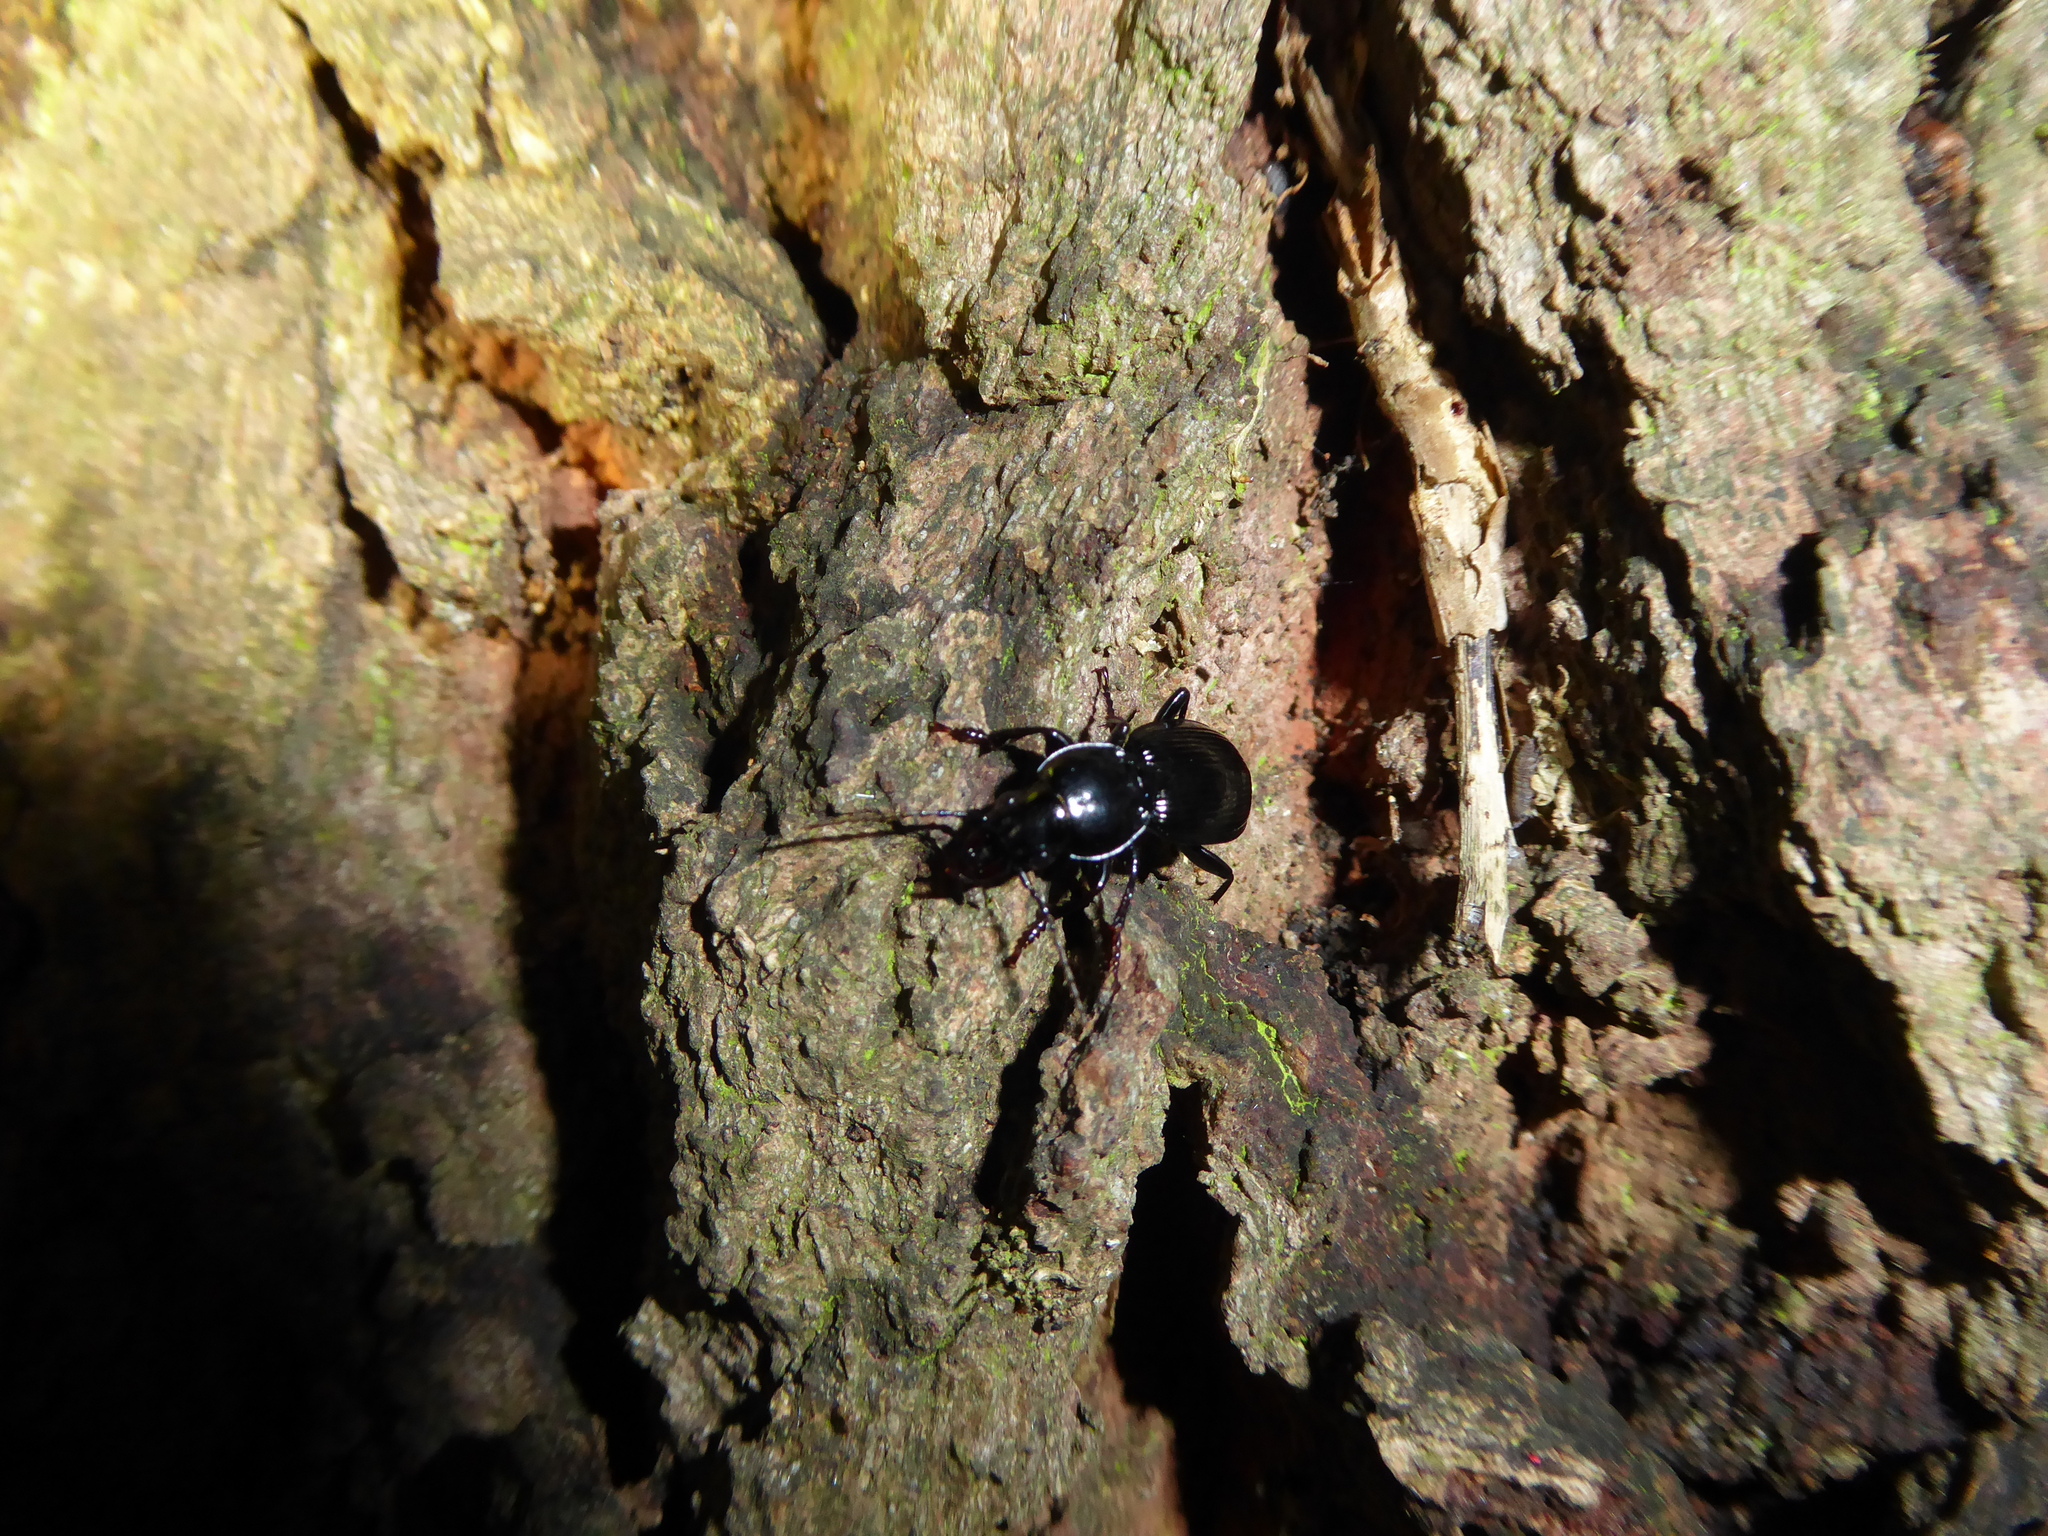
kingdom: Animalia
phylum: Arthropoda
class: Insecta
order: Coleoptera
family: Carabidae
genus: Pterostichus
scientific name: Pterostichus madidus
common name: Black clock
